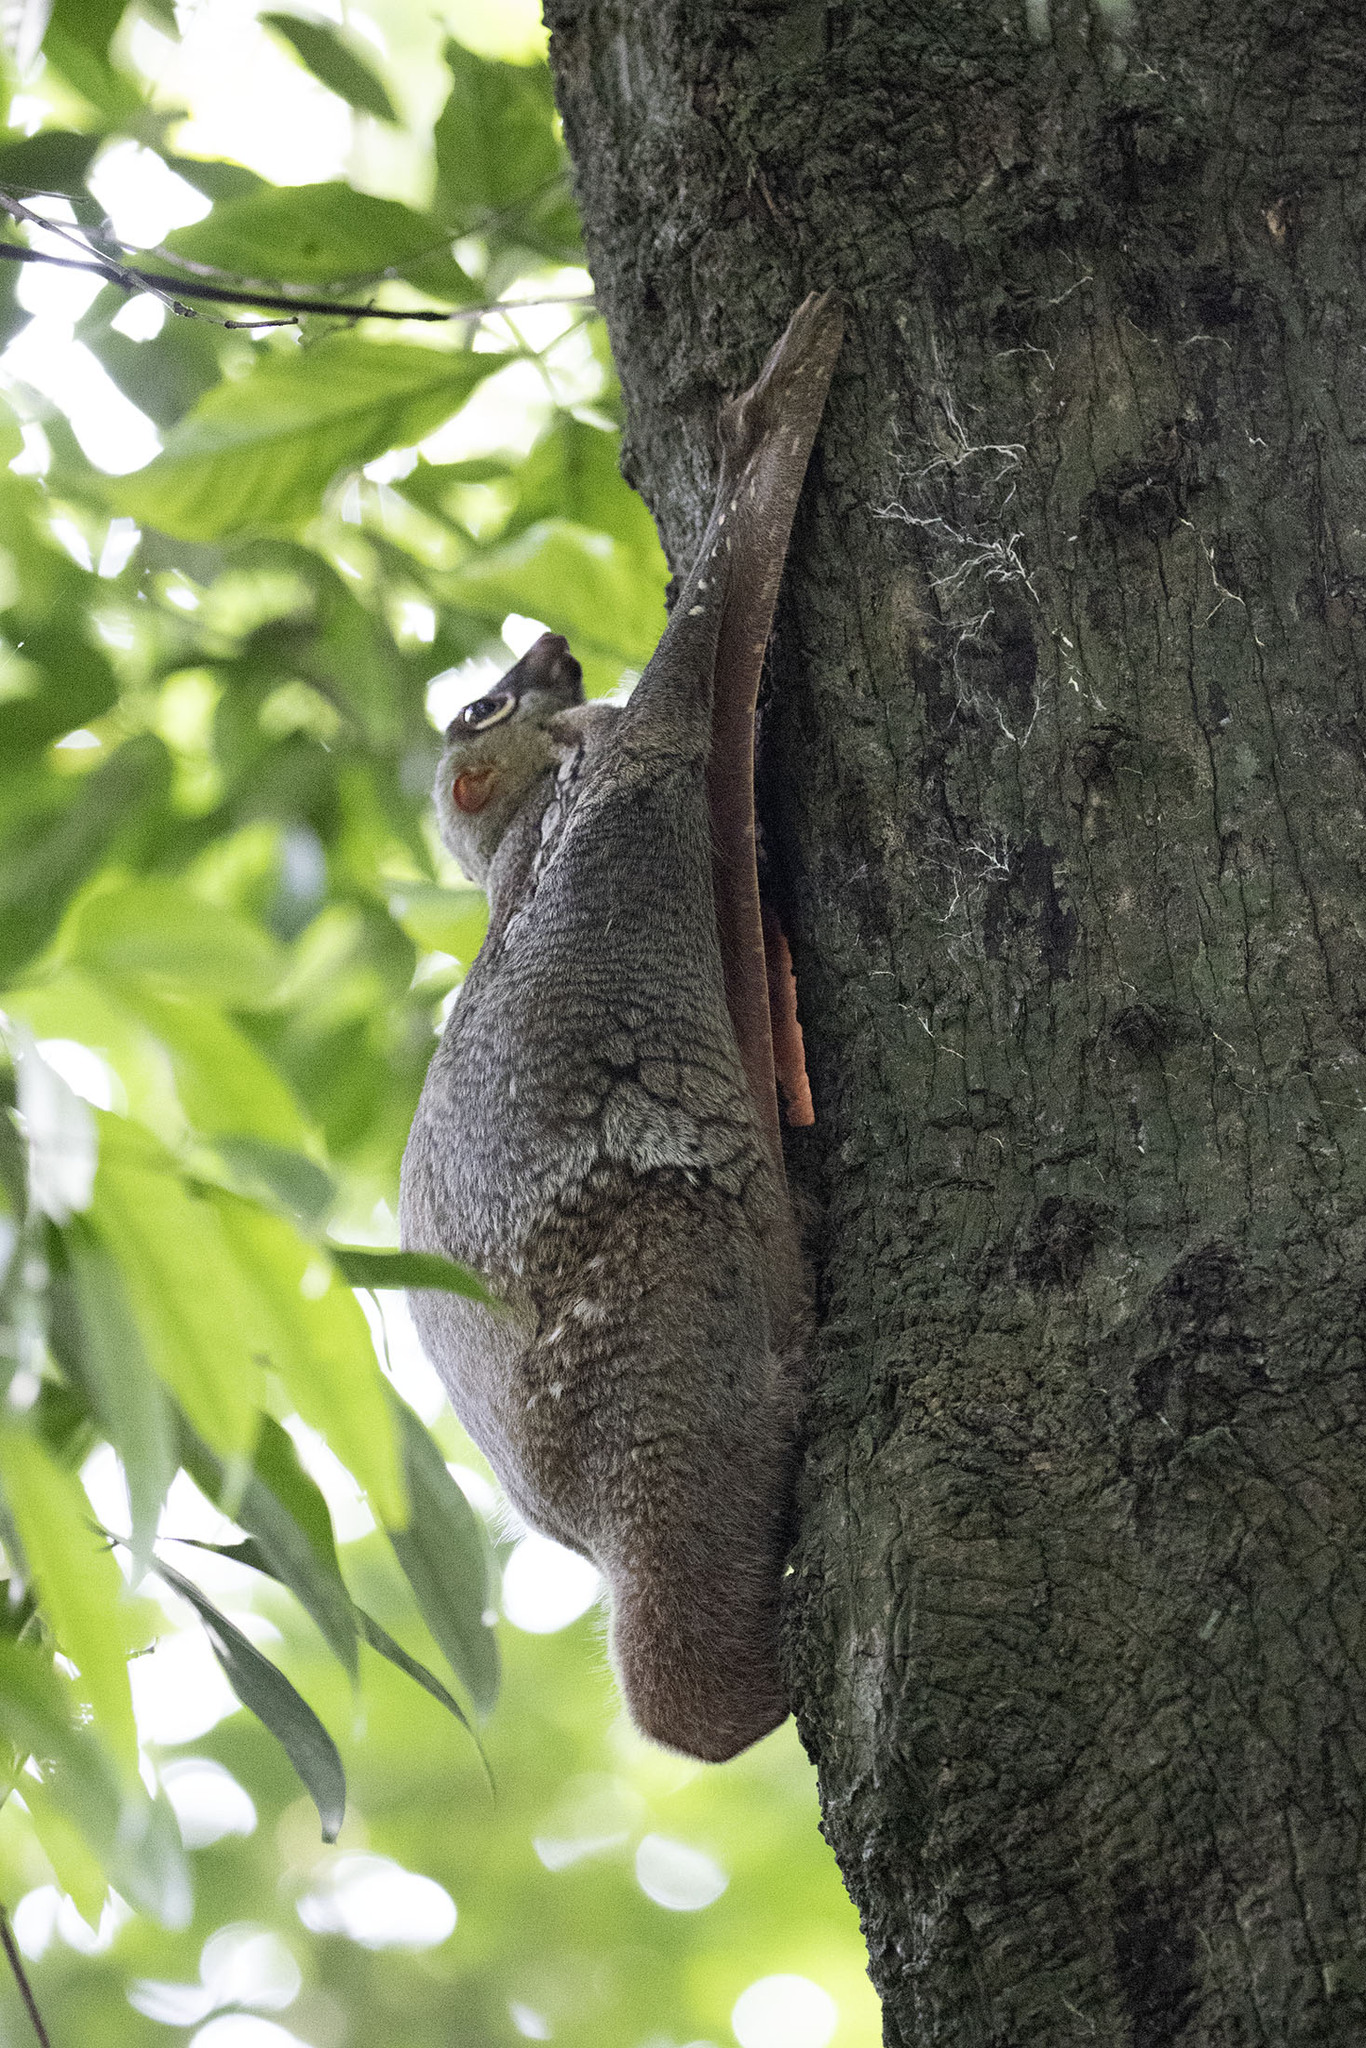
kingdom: Animalia
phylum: Chordata
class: Mammalia
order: Dermoptera
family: Cynocephalidae
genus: Galeopterus
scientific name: Galeopterus variegatus
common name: Sunda flying lemur
